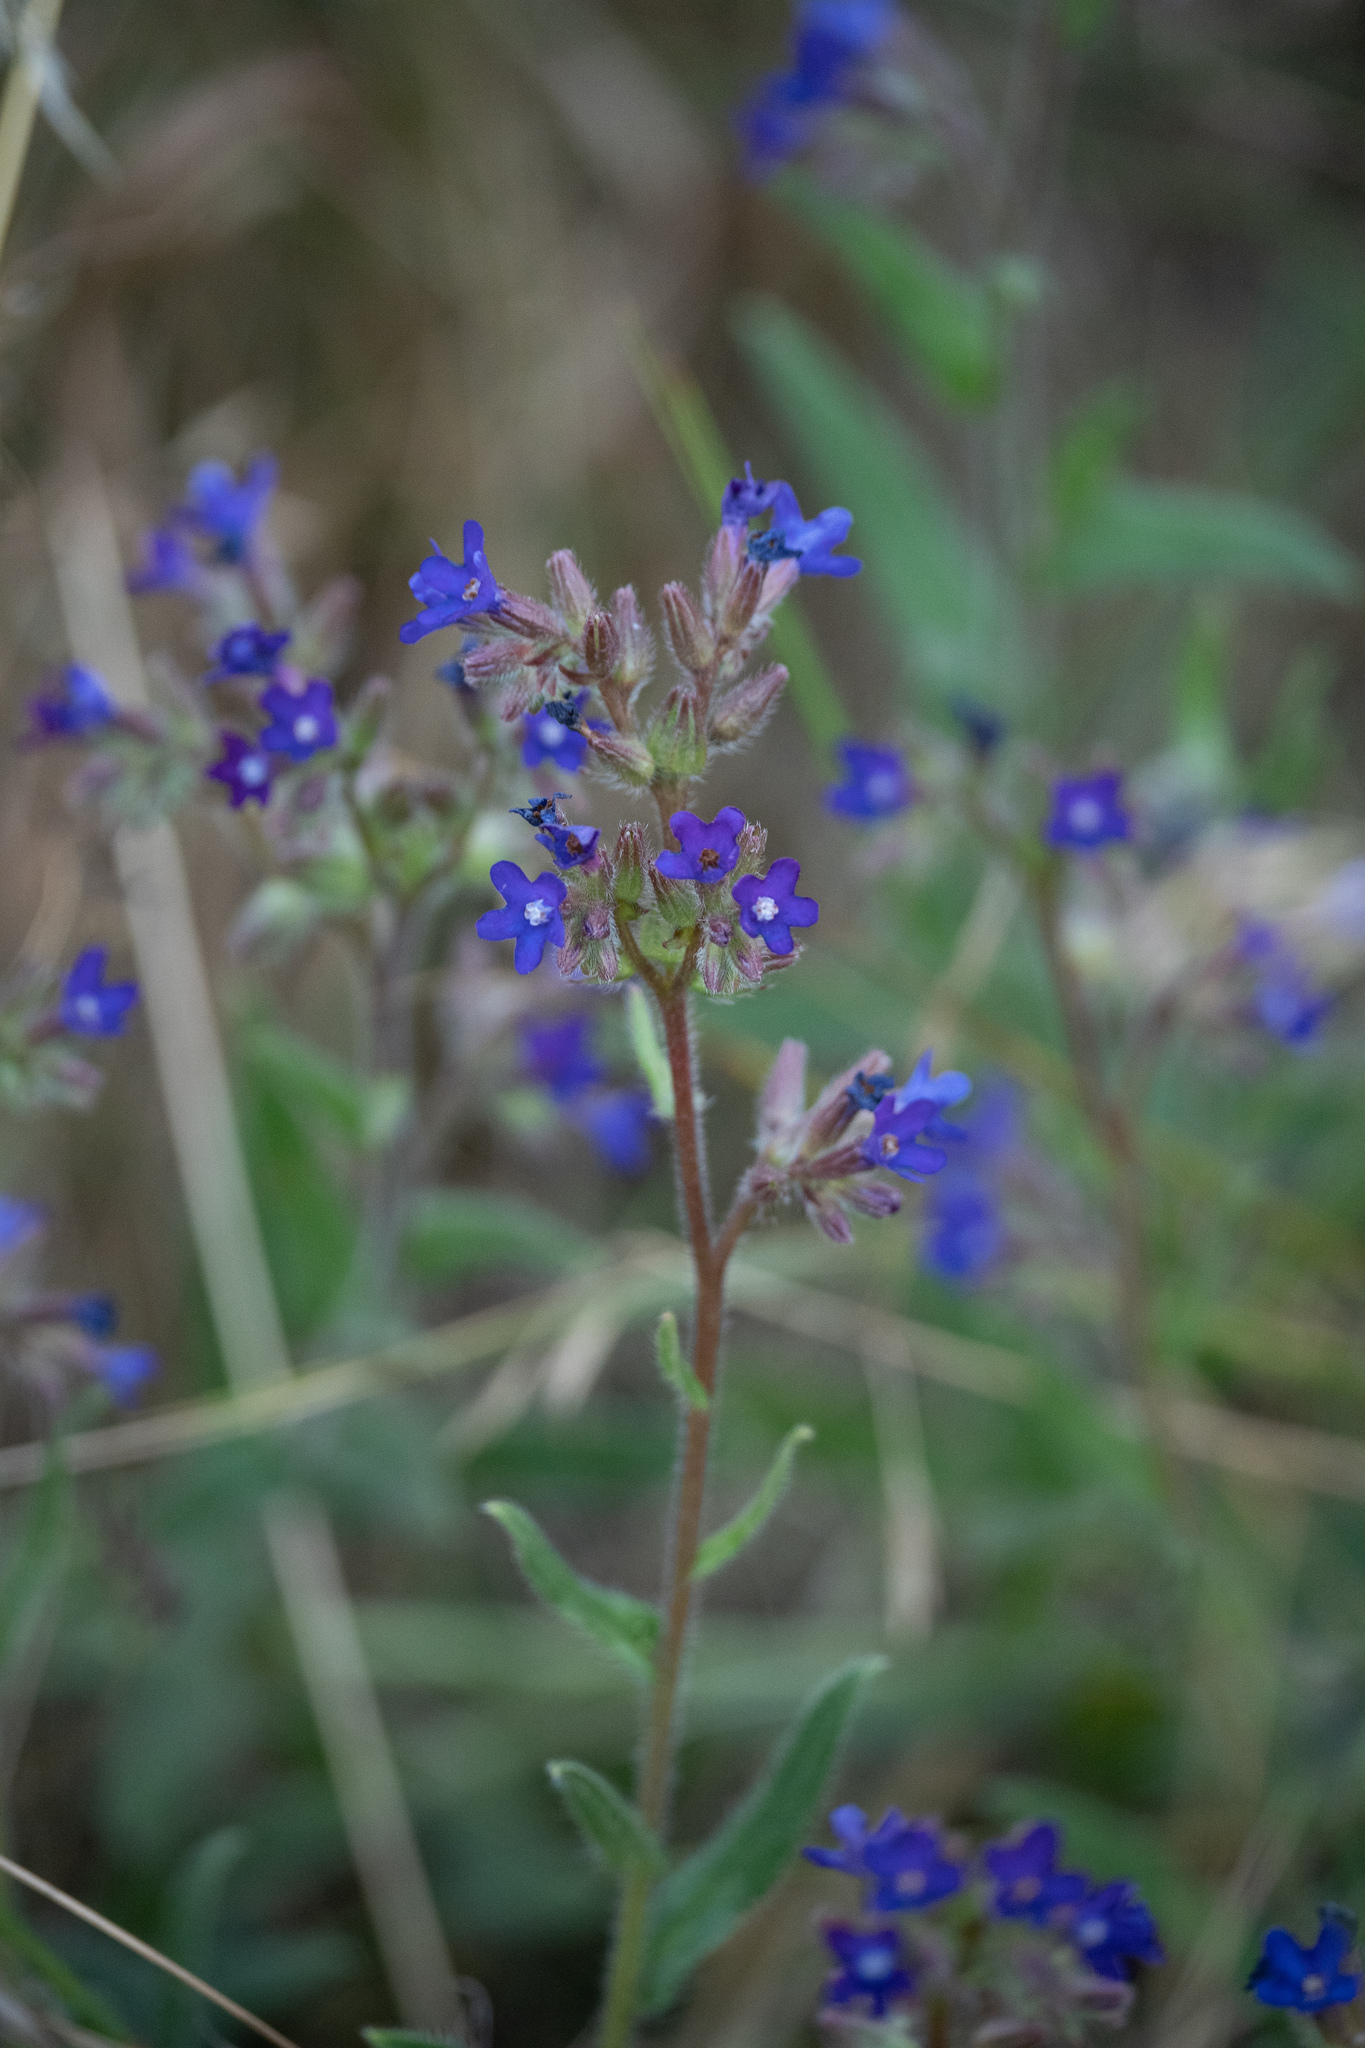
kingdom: Plantae
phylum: Tracheophyta
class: Magnoliopsida
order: Boraginales
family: Boraginaceae
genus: Anchusa
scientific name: Anchusa officinalis
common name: Alkanet
